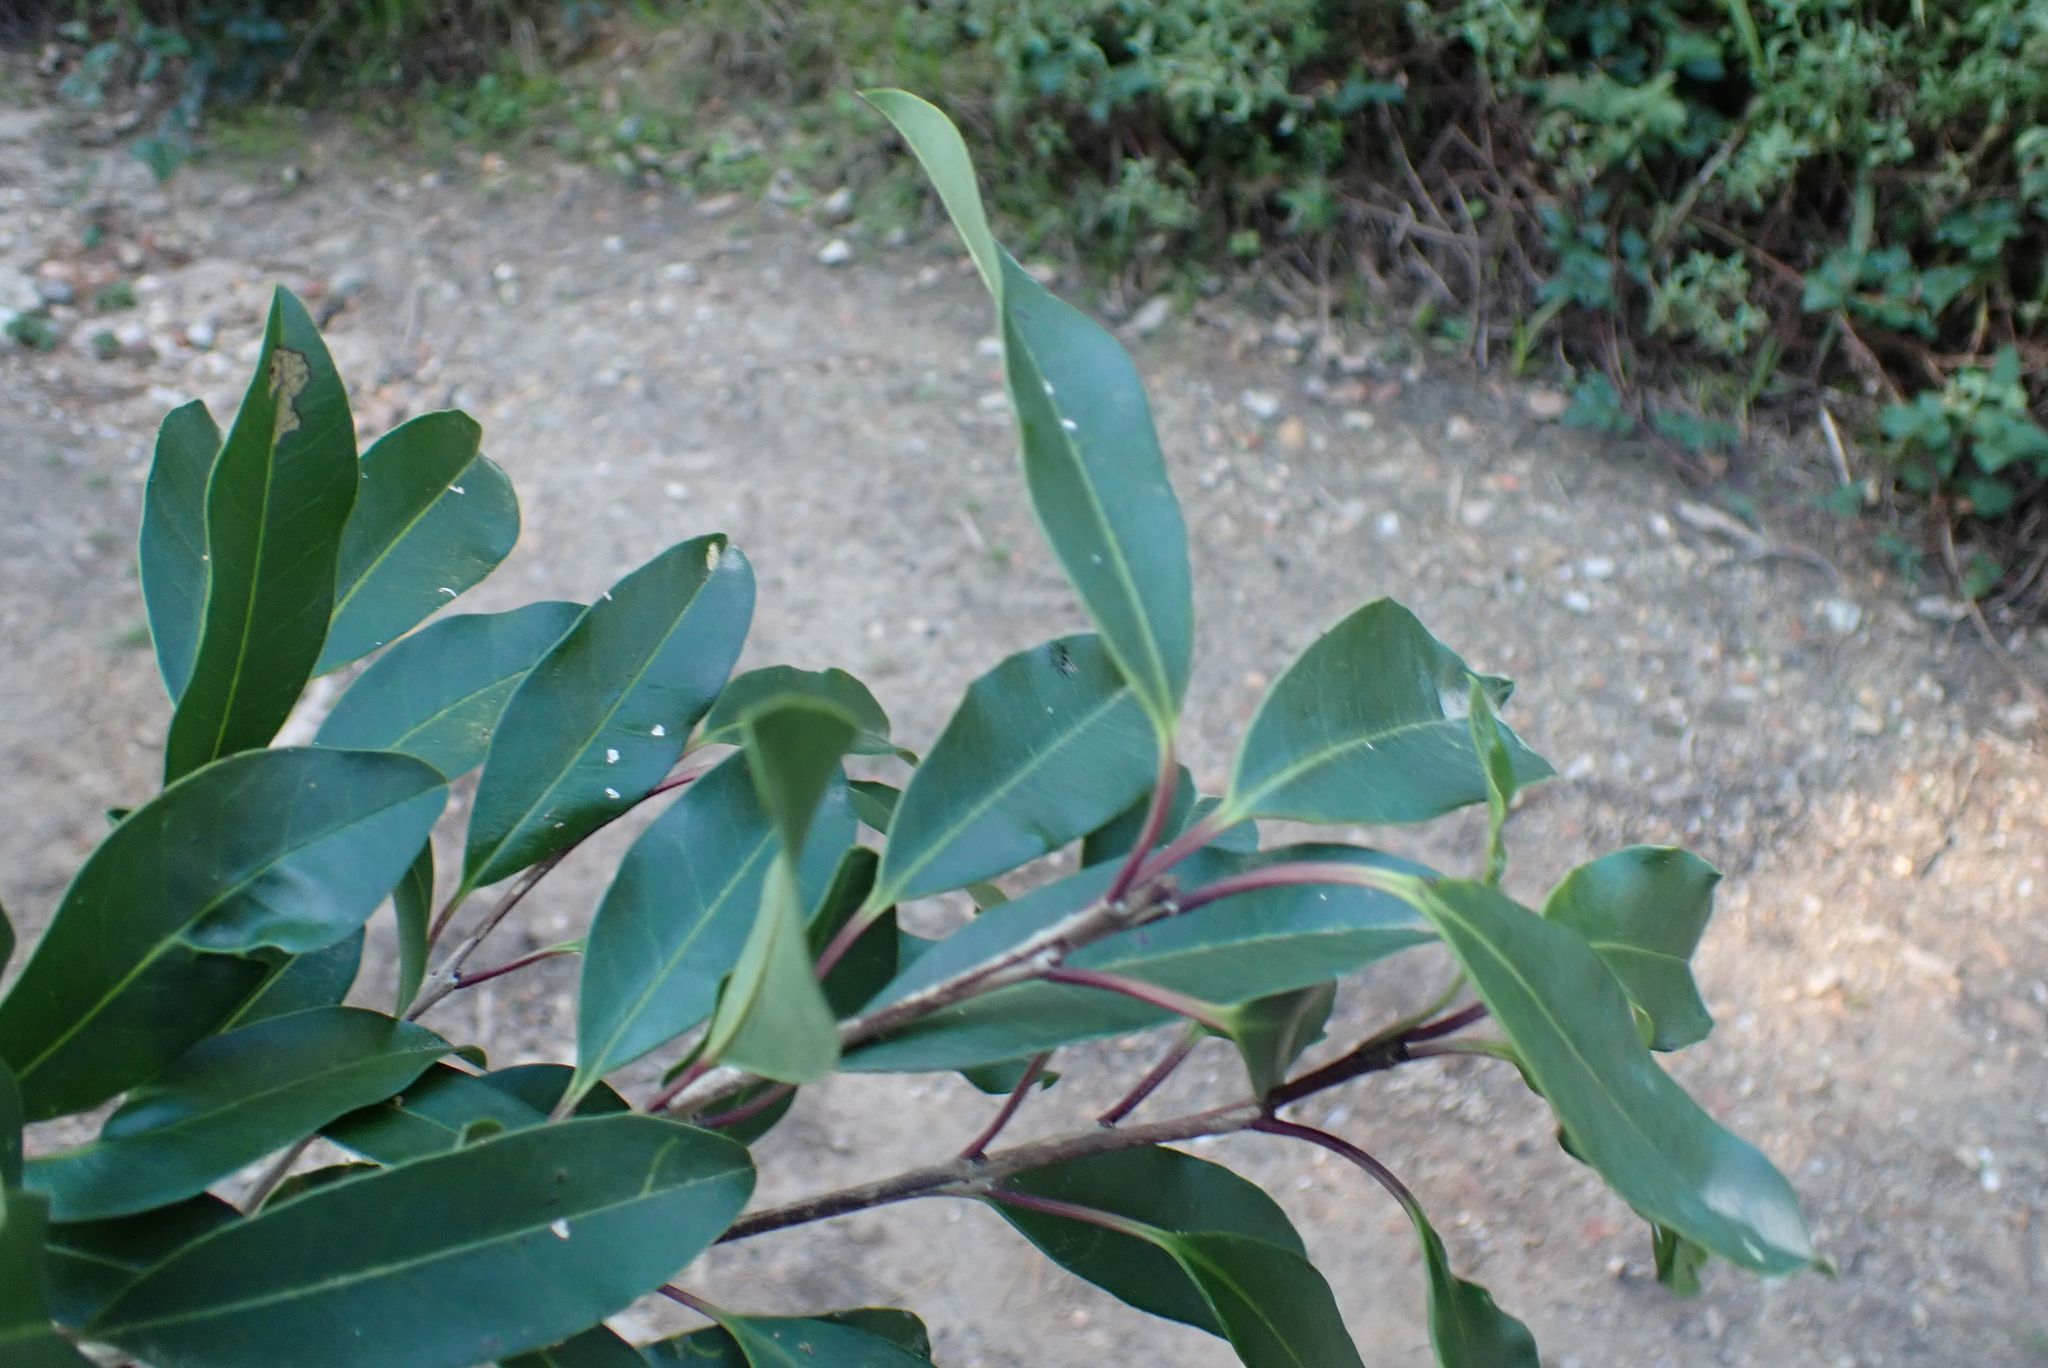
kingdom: Plantae
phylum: Tracheophyta
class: Magnoliopsida
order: Aquifoliales
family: Aquifoliaceae
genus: Ilex
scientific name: Ilex mitis
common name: African holly
